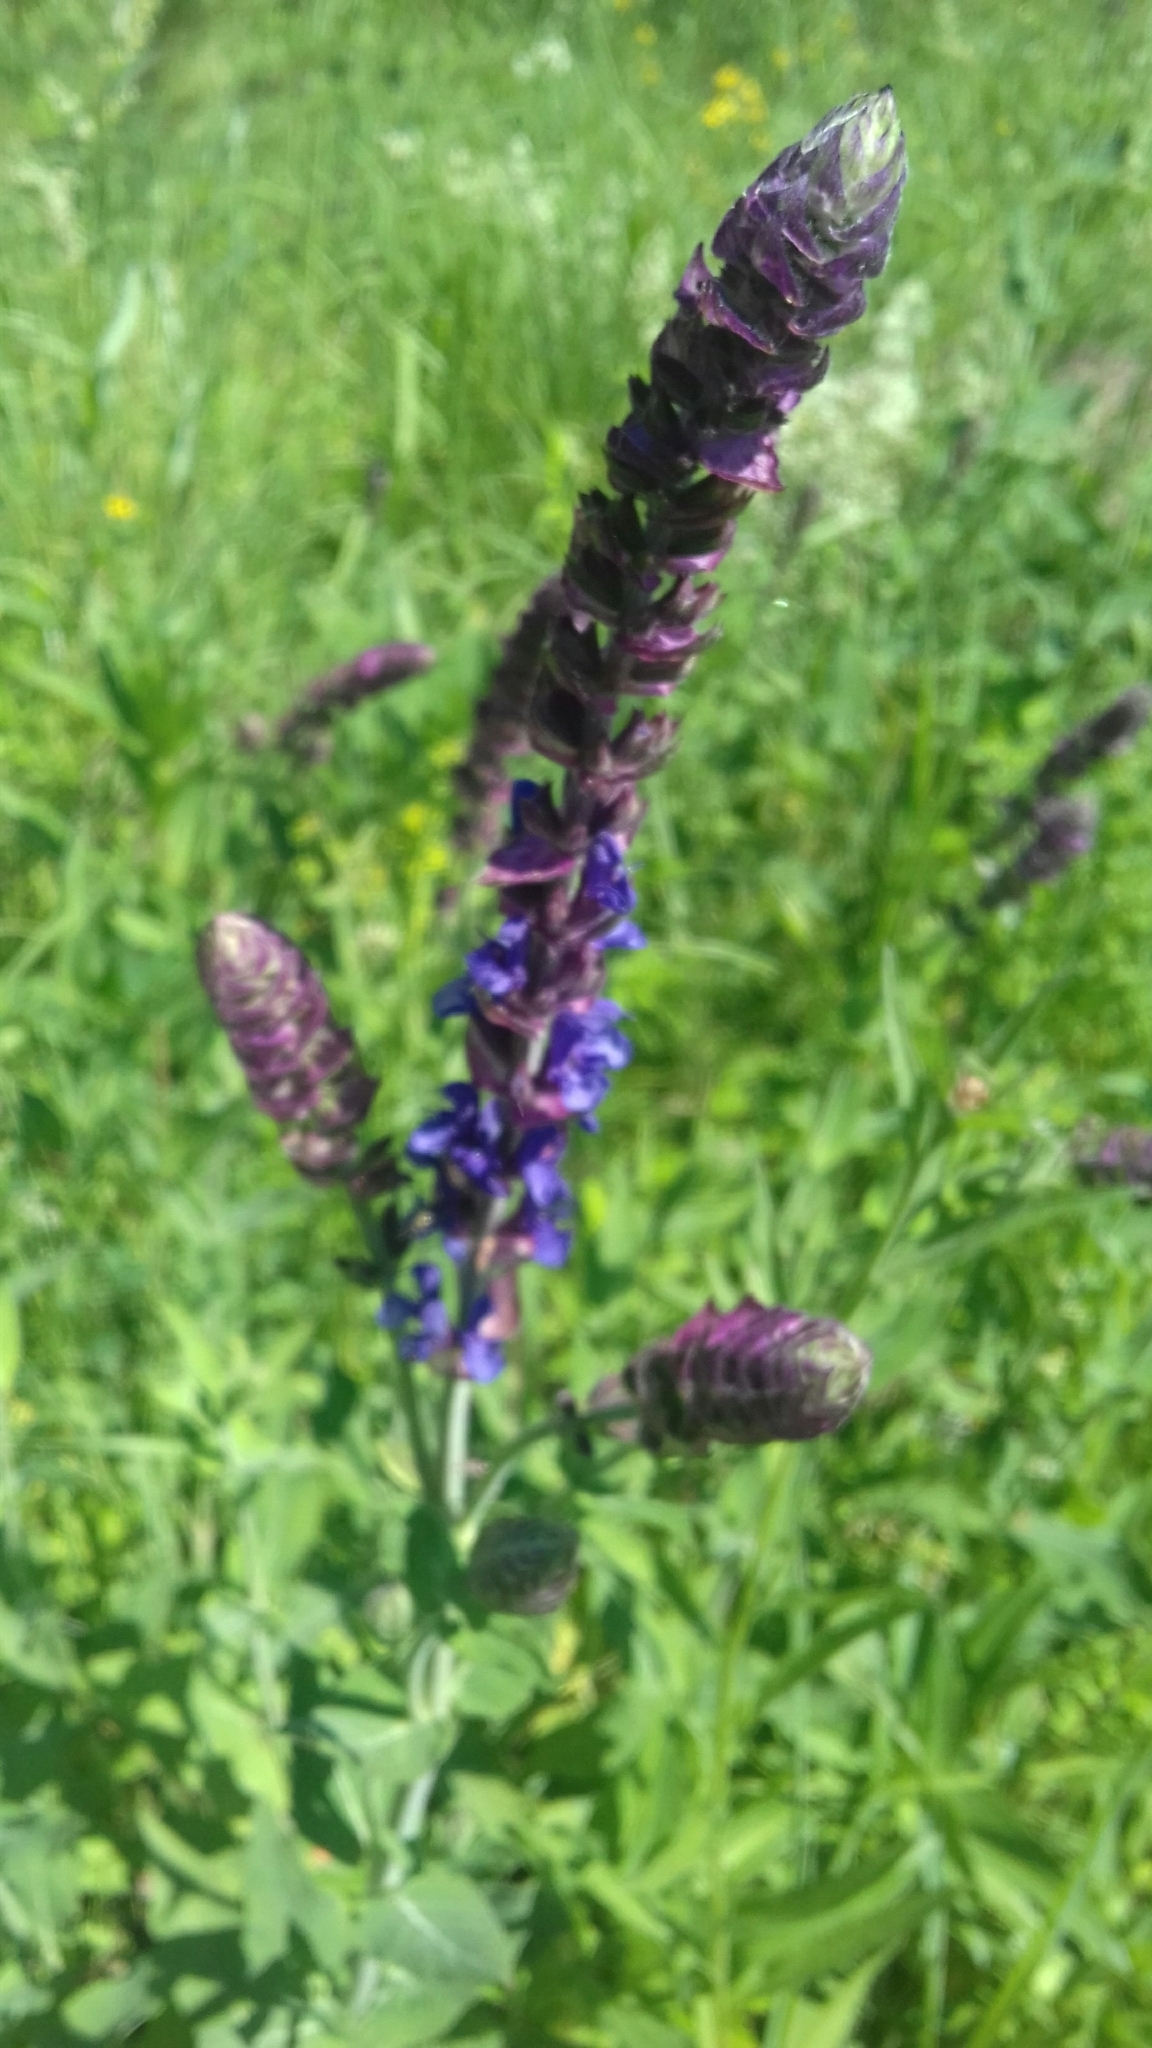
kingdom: Plantae
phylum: Tracheophyta
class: Magnoliopsida
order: Lamiales
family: Lamiaceae
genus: Salvia
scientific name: Salvia nemorosa
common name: Balkan clary
